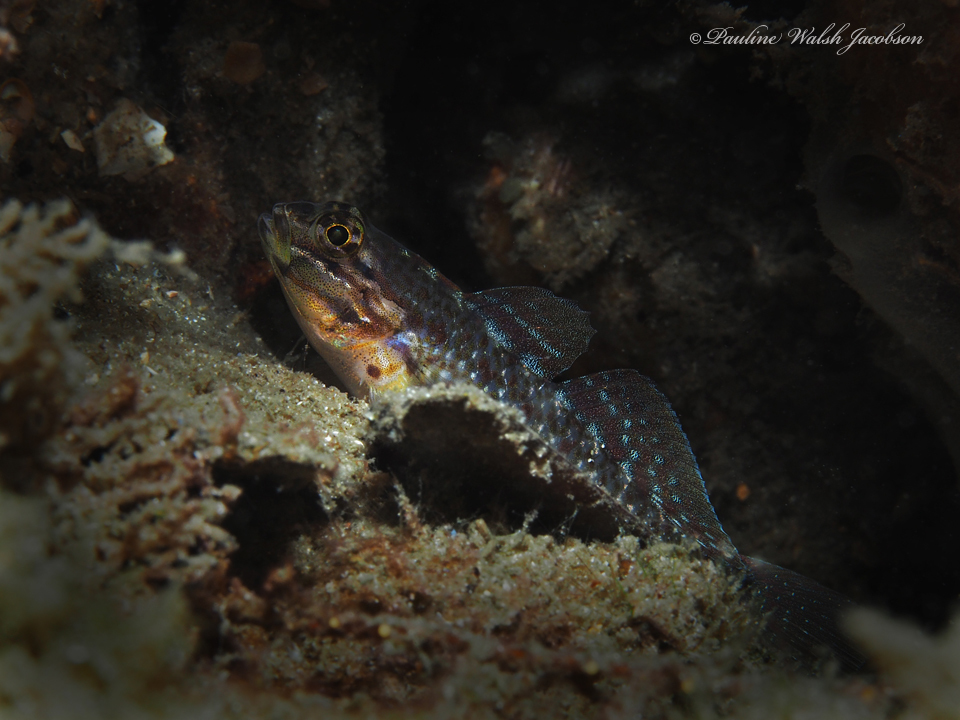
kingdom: Animalia
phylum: Chordata
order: Perciformes
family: Gobiidae
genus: Coryphopterus
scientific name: Coryphopterus dicrus
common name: Colon goby
